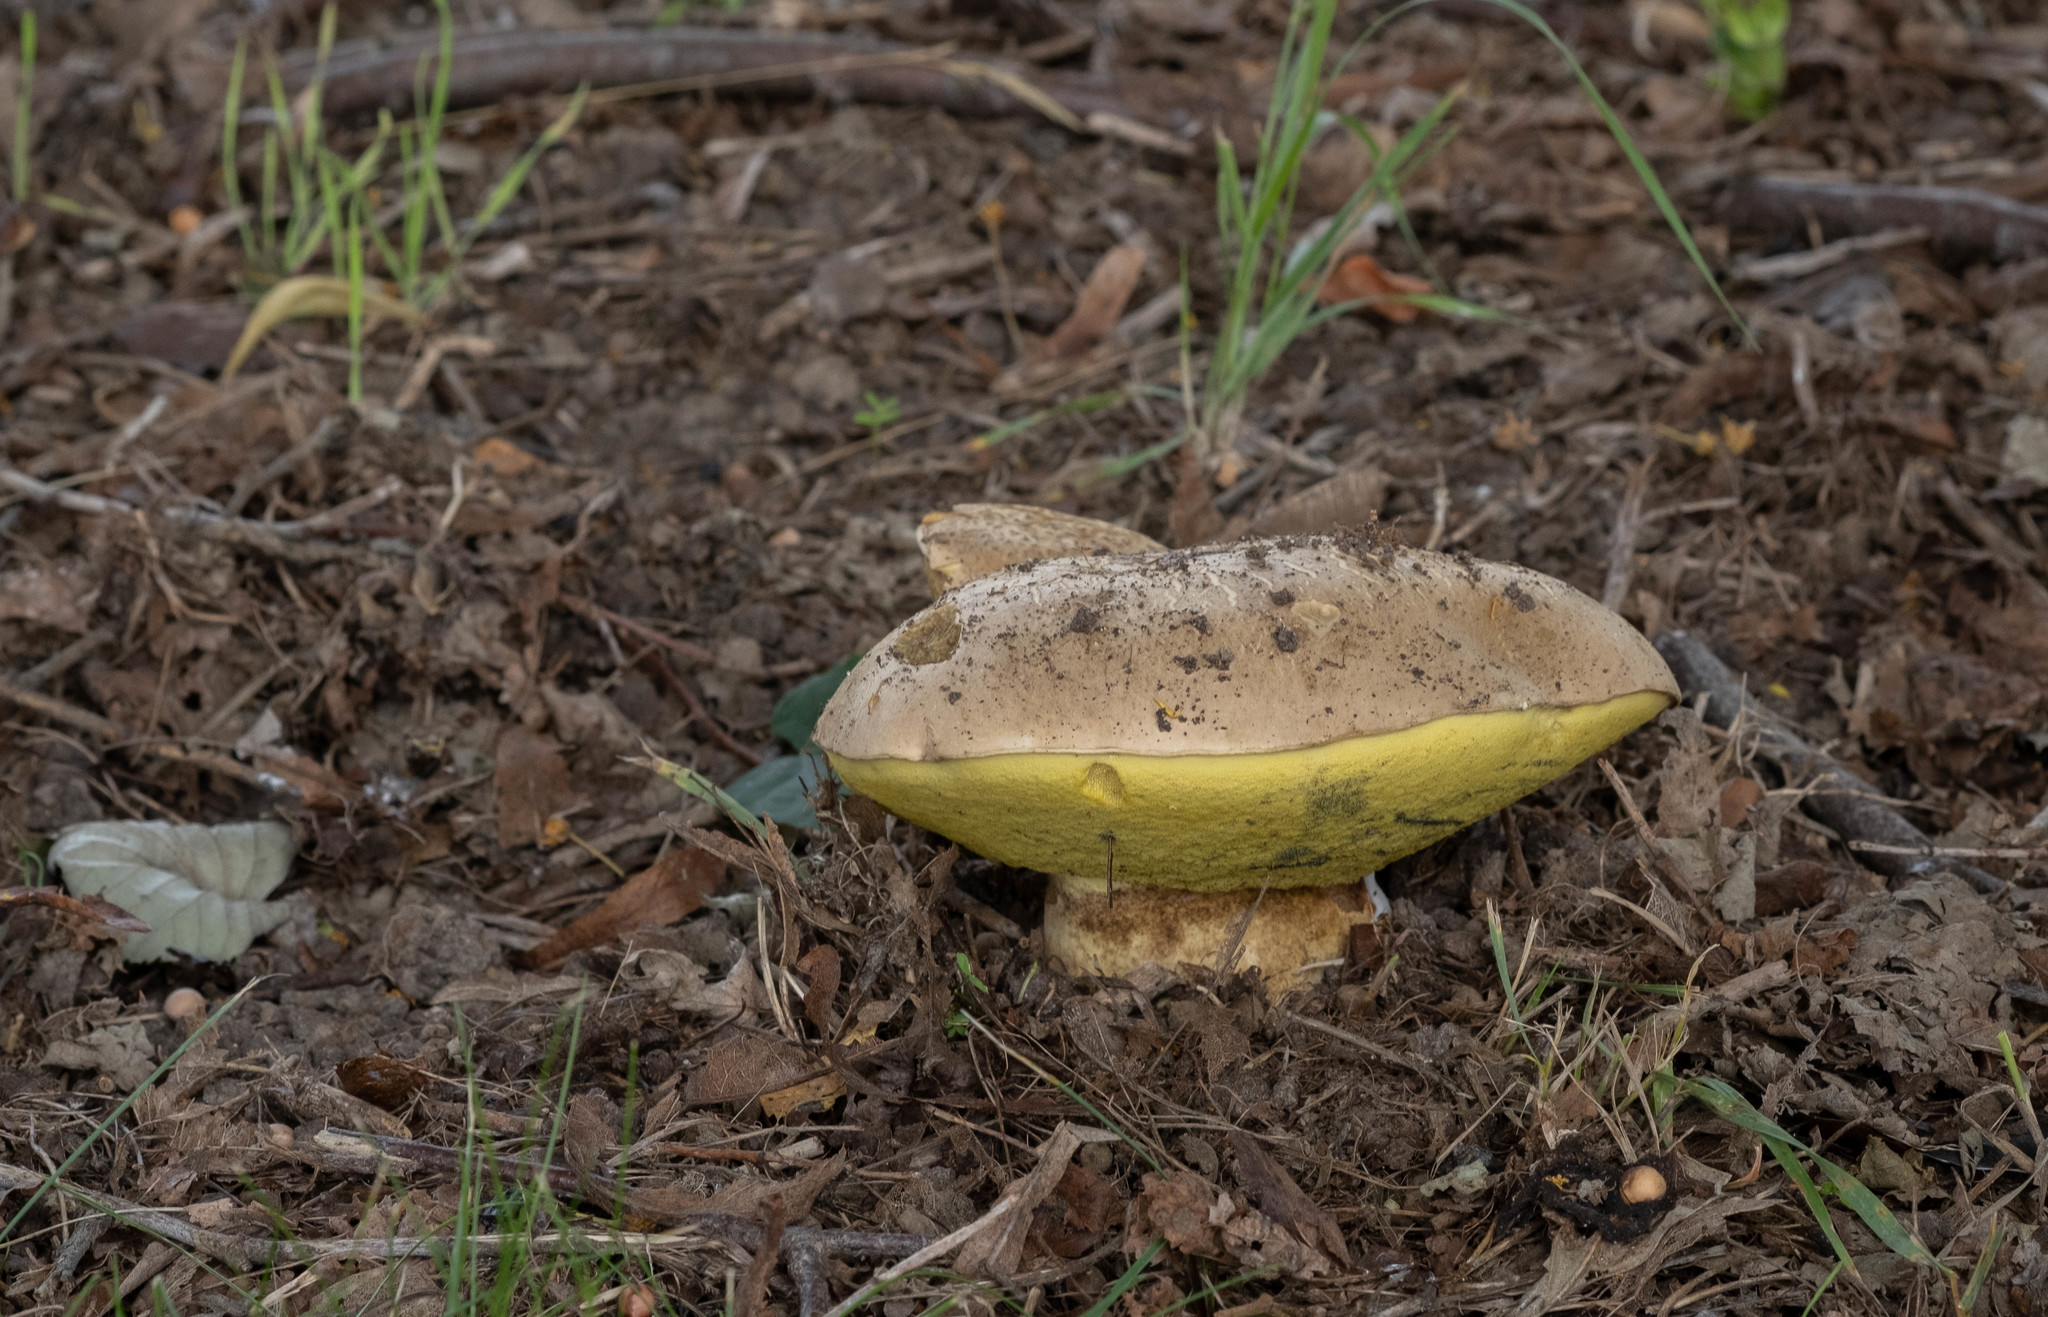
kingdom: Fungi
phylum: Basidiomycota
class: Agaricomycetes
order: Boletales
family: Boletaceae
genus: Caloboletus
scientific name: Caloboletus radicans
